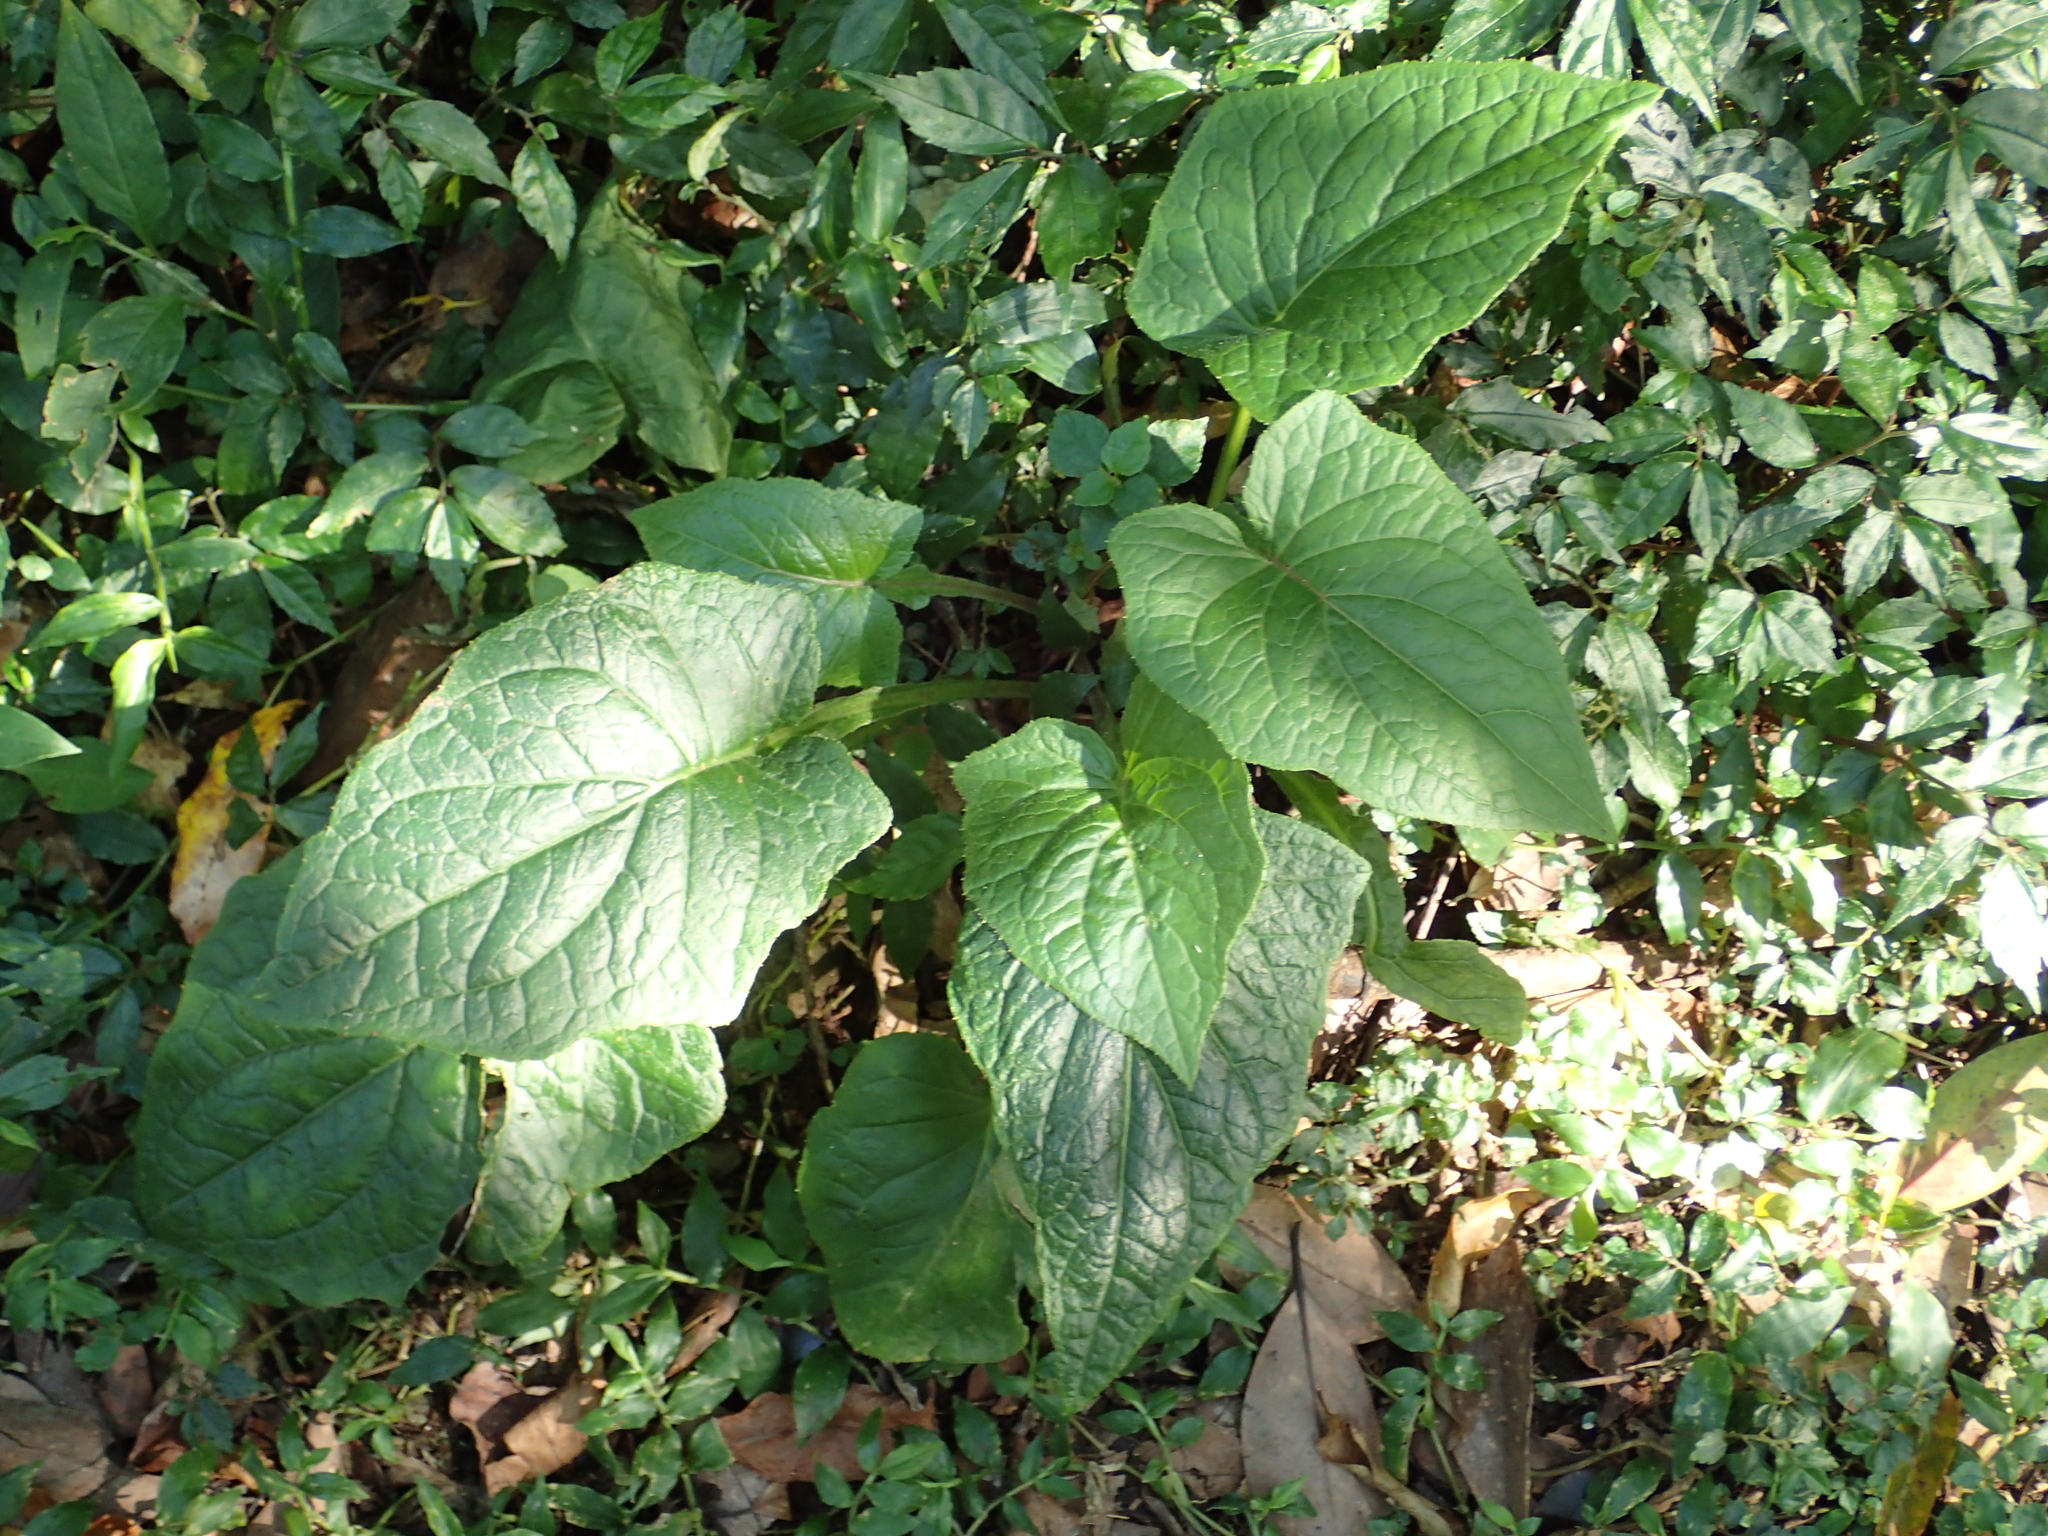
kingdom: Plantae
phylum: Tracheophyta
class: Magnoliopsida
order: Asterales
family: Asteraceae
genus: Paraprenanthes
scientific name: Paraprenanthes sororia
